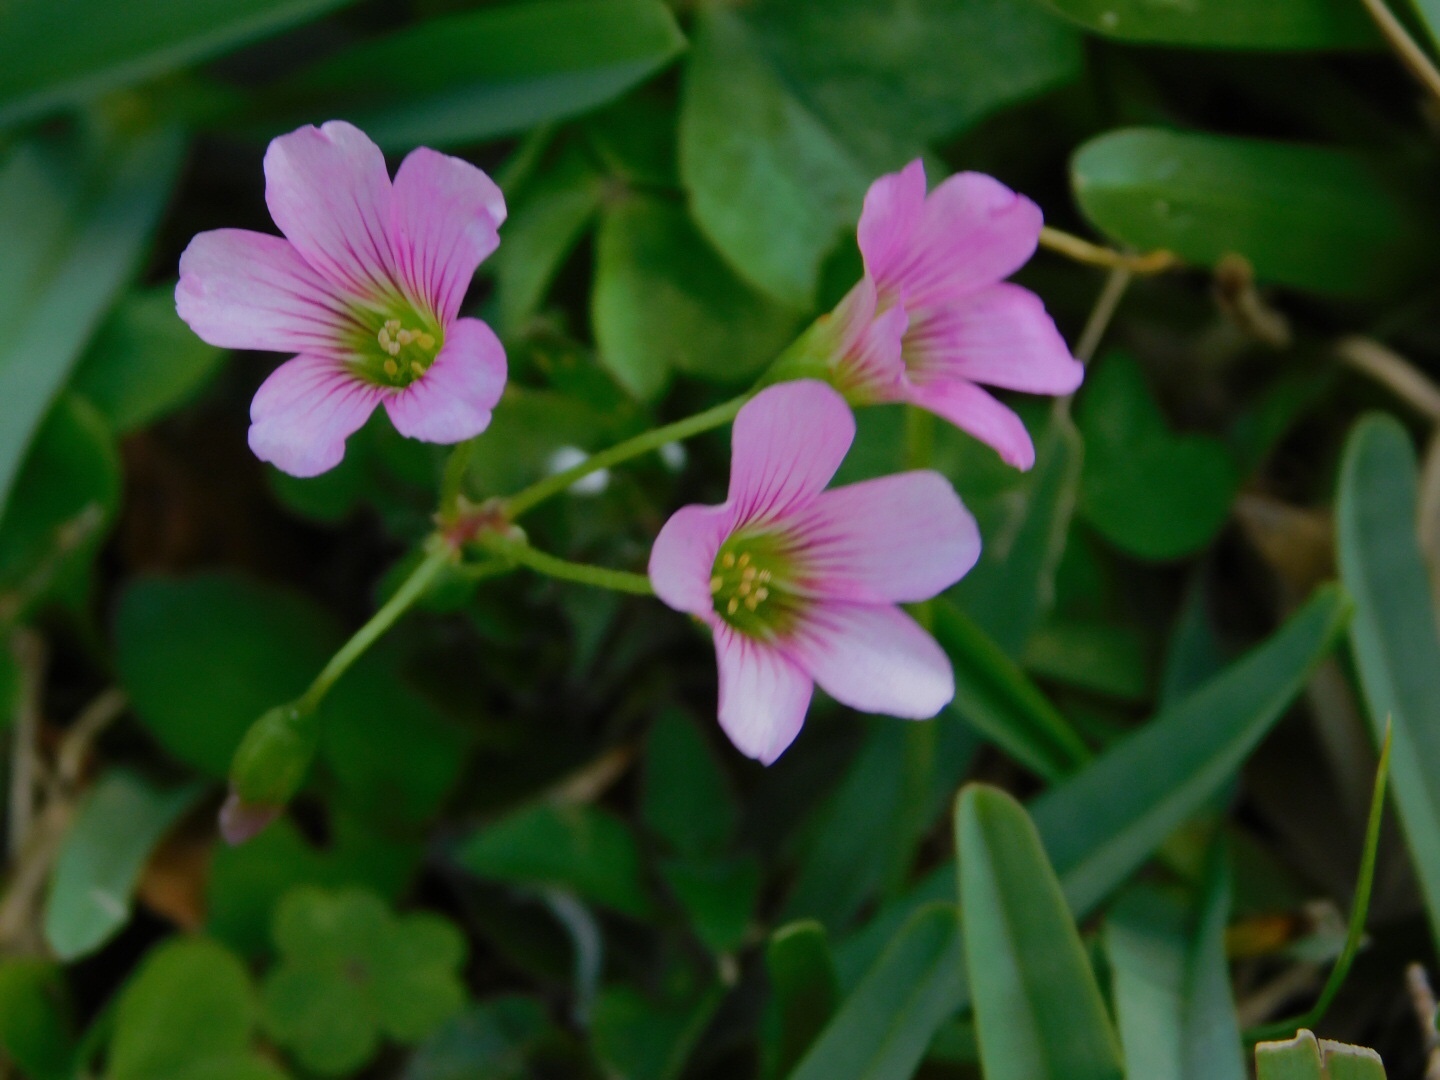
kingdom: Plantae
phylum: Tracheophyta
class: Magnoliopsida
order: Oxalidales
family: Oxalidaceae
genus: Oxalis
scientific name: Oxalis debilis
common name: Large-flowered pink-sorrel
